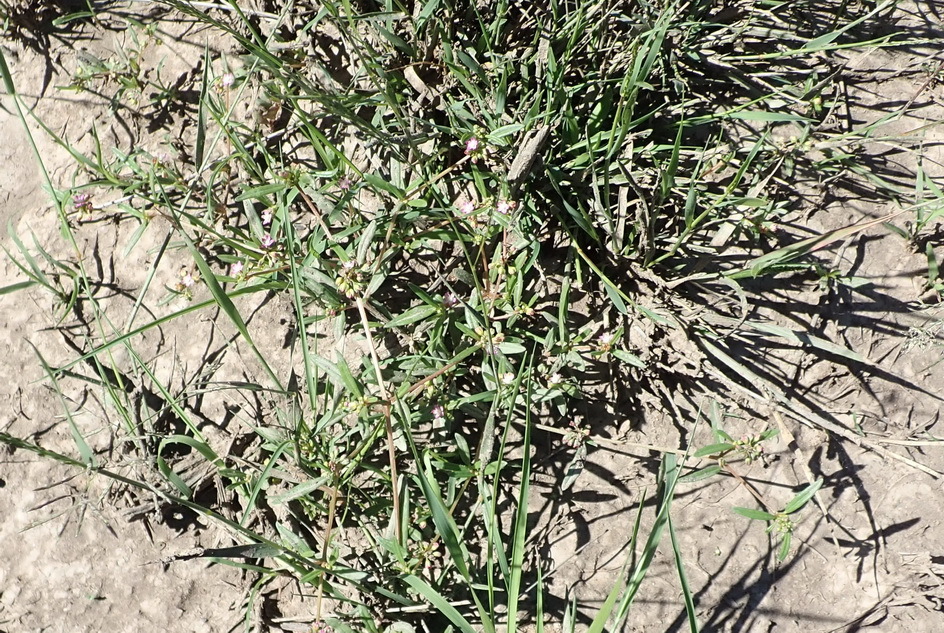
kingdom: Plantae
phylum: Tracheophyta
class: Magnoliopsida
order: Caryophyllales
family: Gisekiaceae
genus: Gisekia
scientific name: Gisekia pharnaceoides
